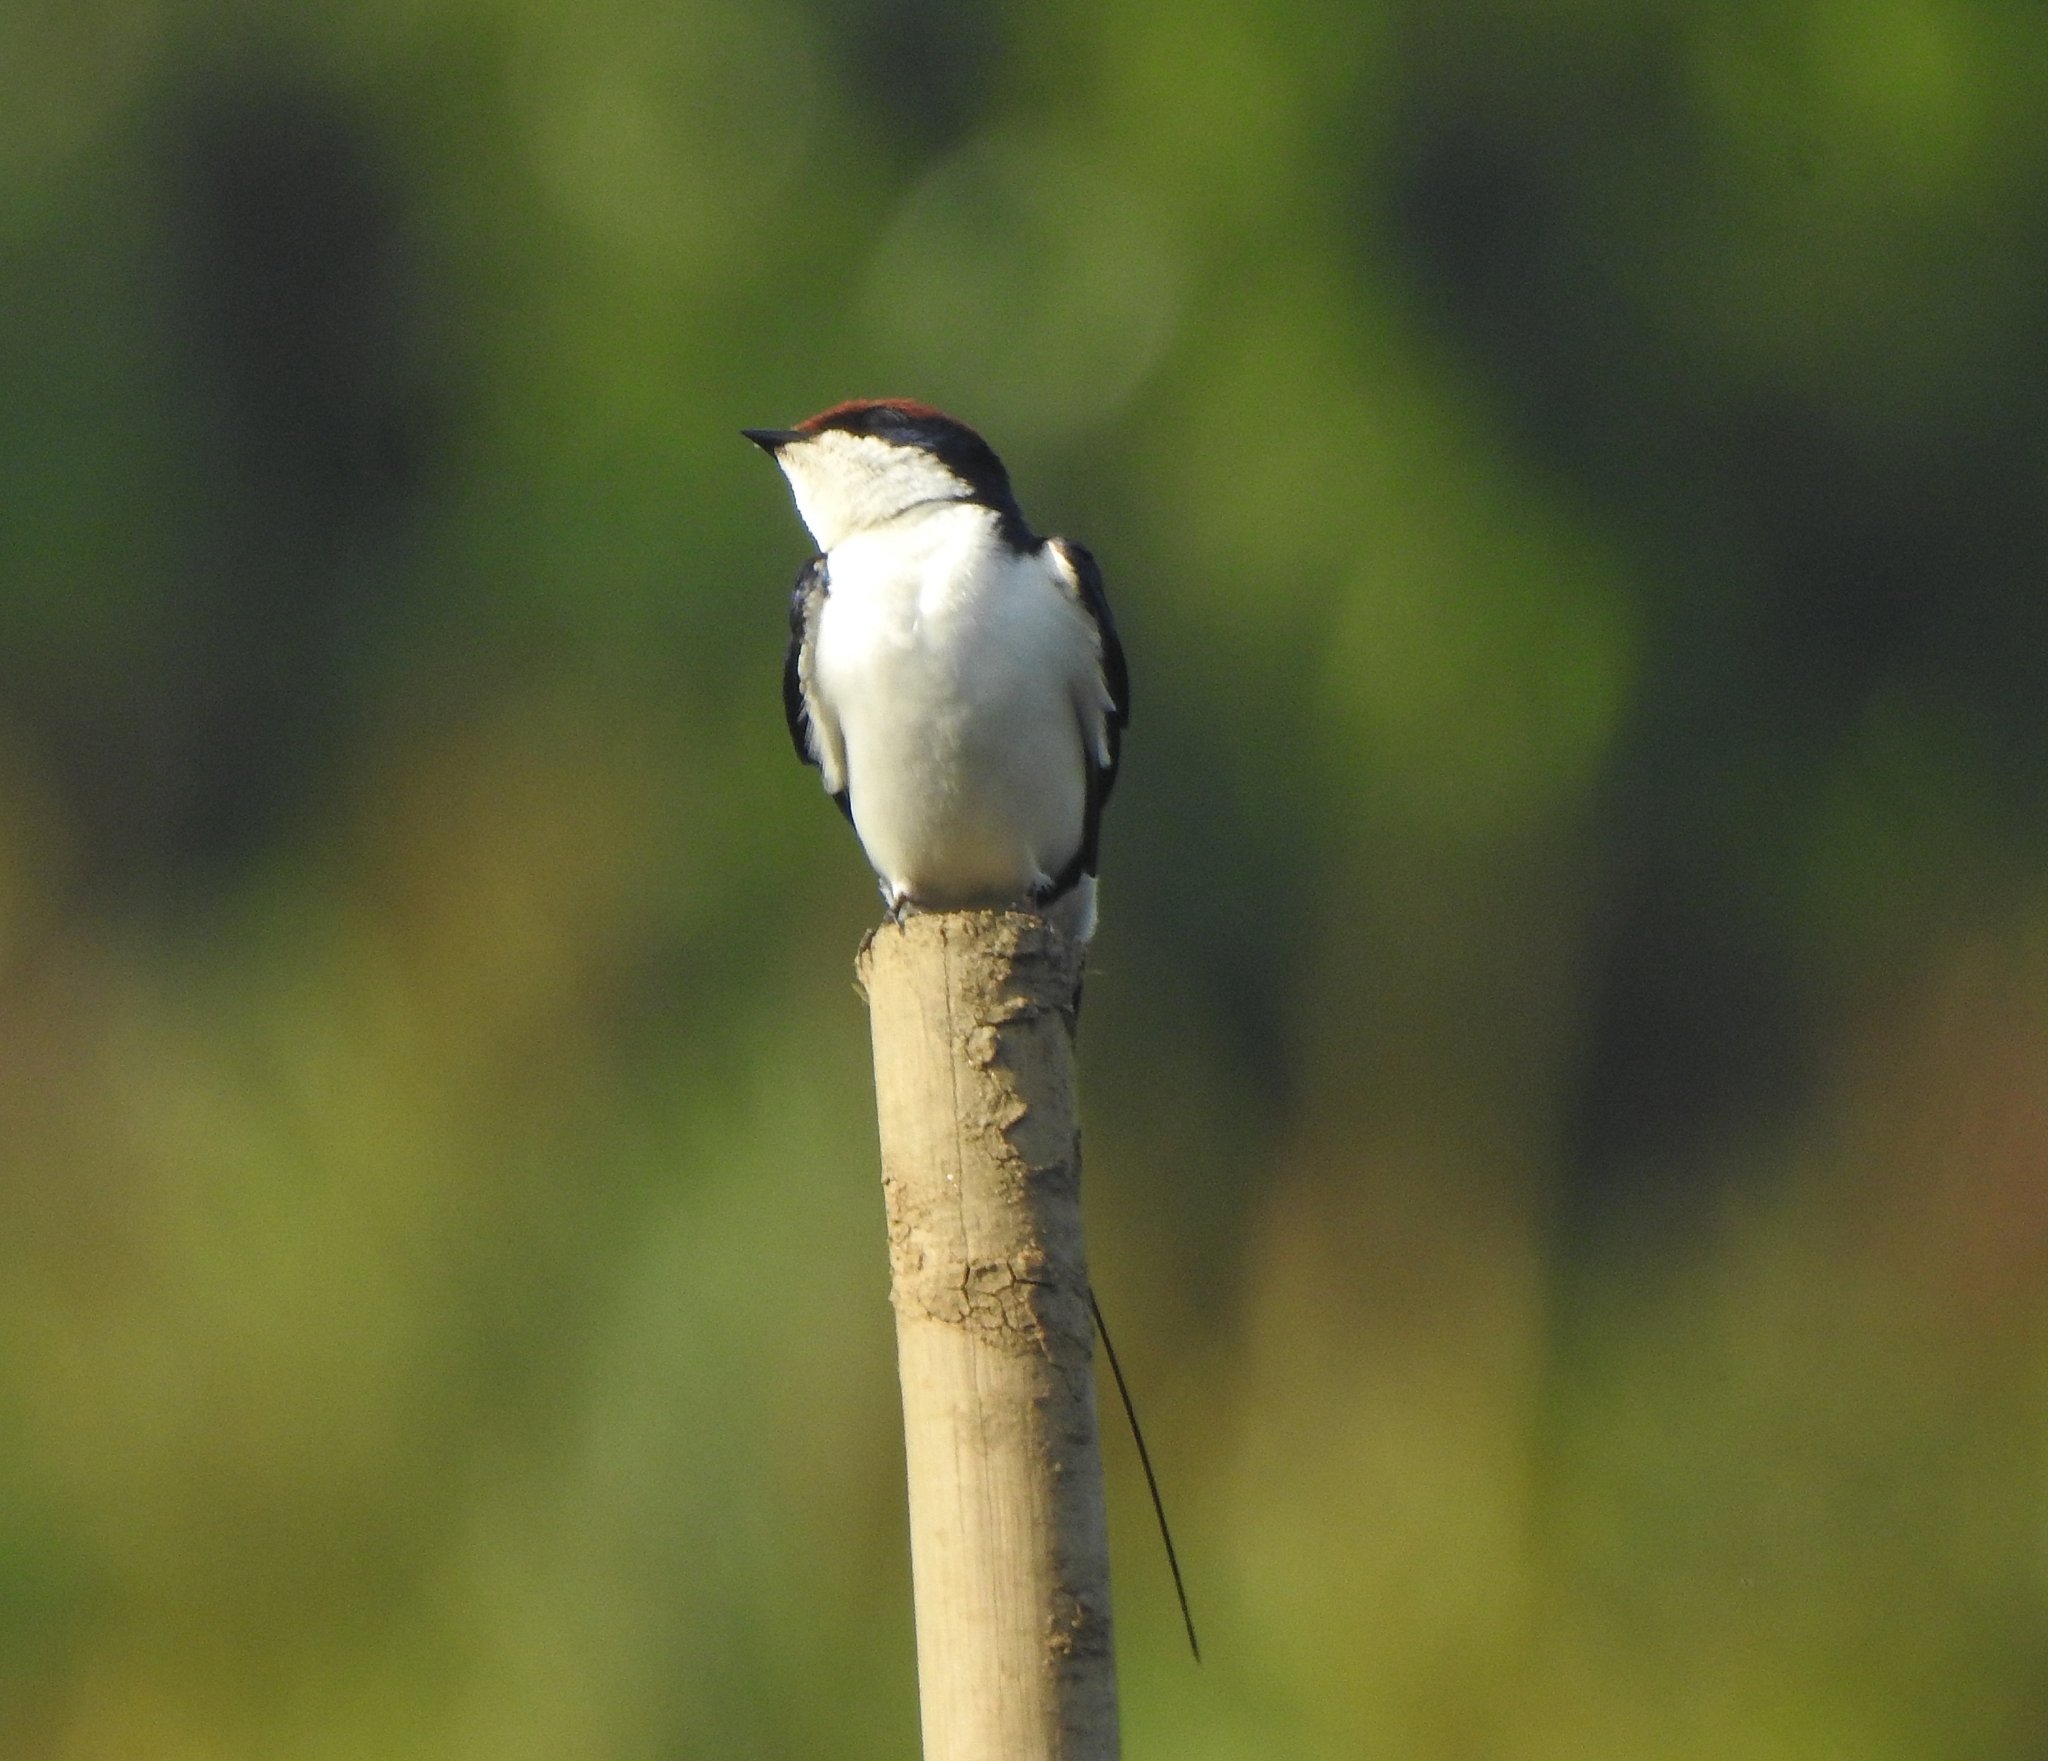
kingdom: Animalia
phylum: Chordata
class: Aves
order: Passeriformes
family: Hirundinidae
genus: Hirundo
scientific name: Hirundo smithii
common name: Wire-tailed swallow
